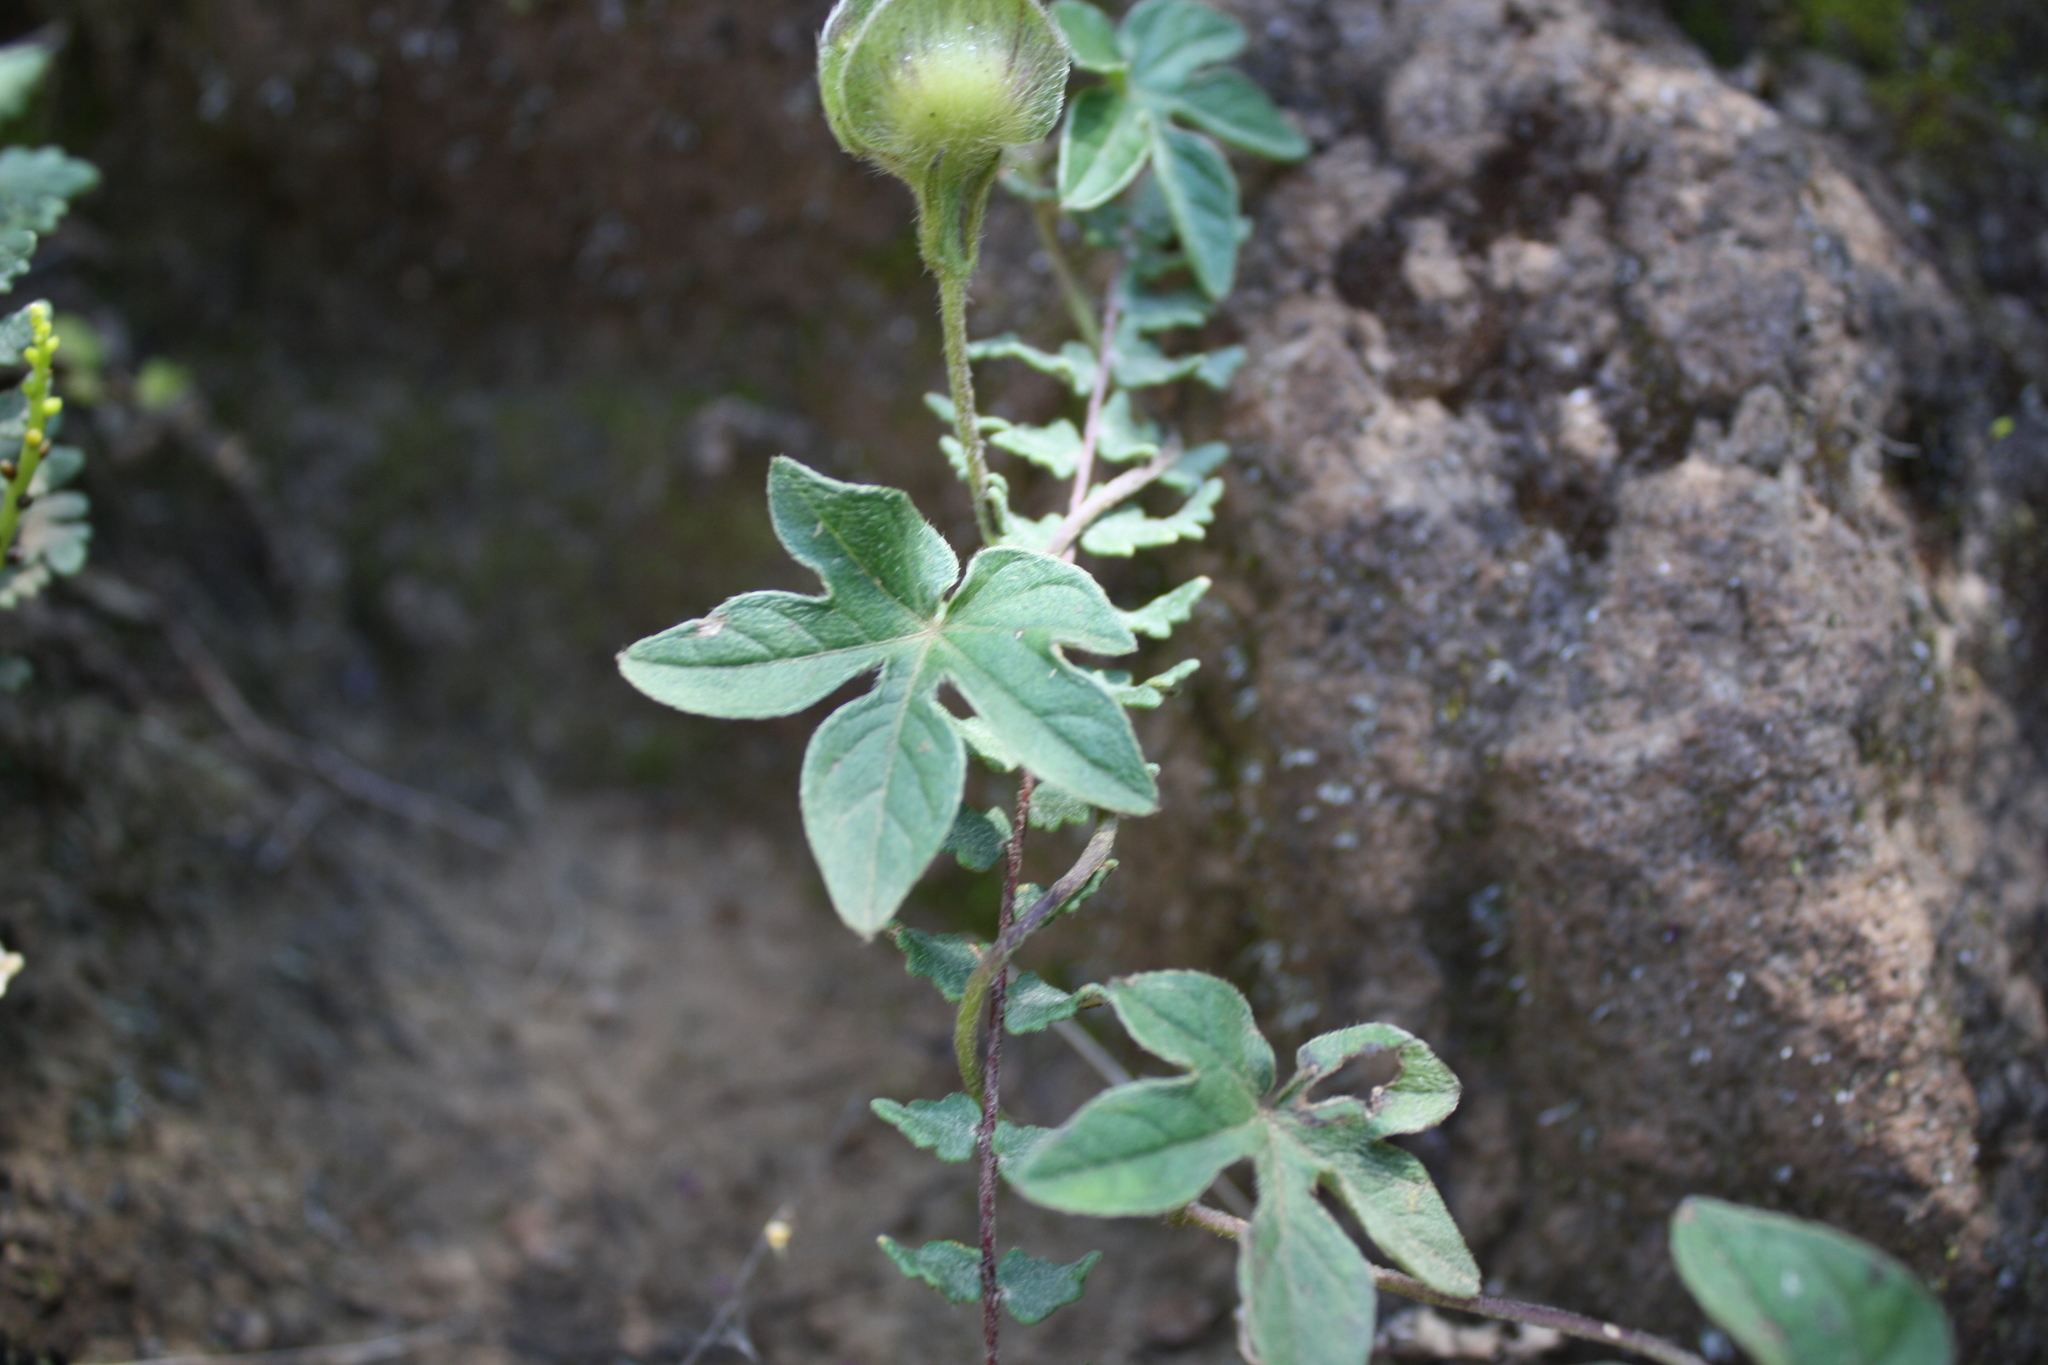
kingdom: Plantae
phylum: Tracheophyta
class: Magnoliopsida
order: Solanales
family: Convolvulaceae
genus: Ipomoea
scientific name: Ipomoea pubescens
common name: Silky morning-glory
